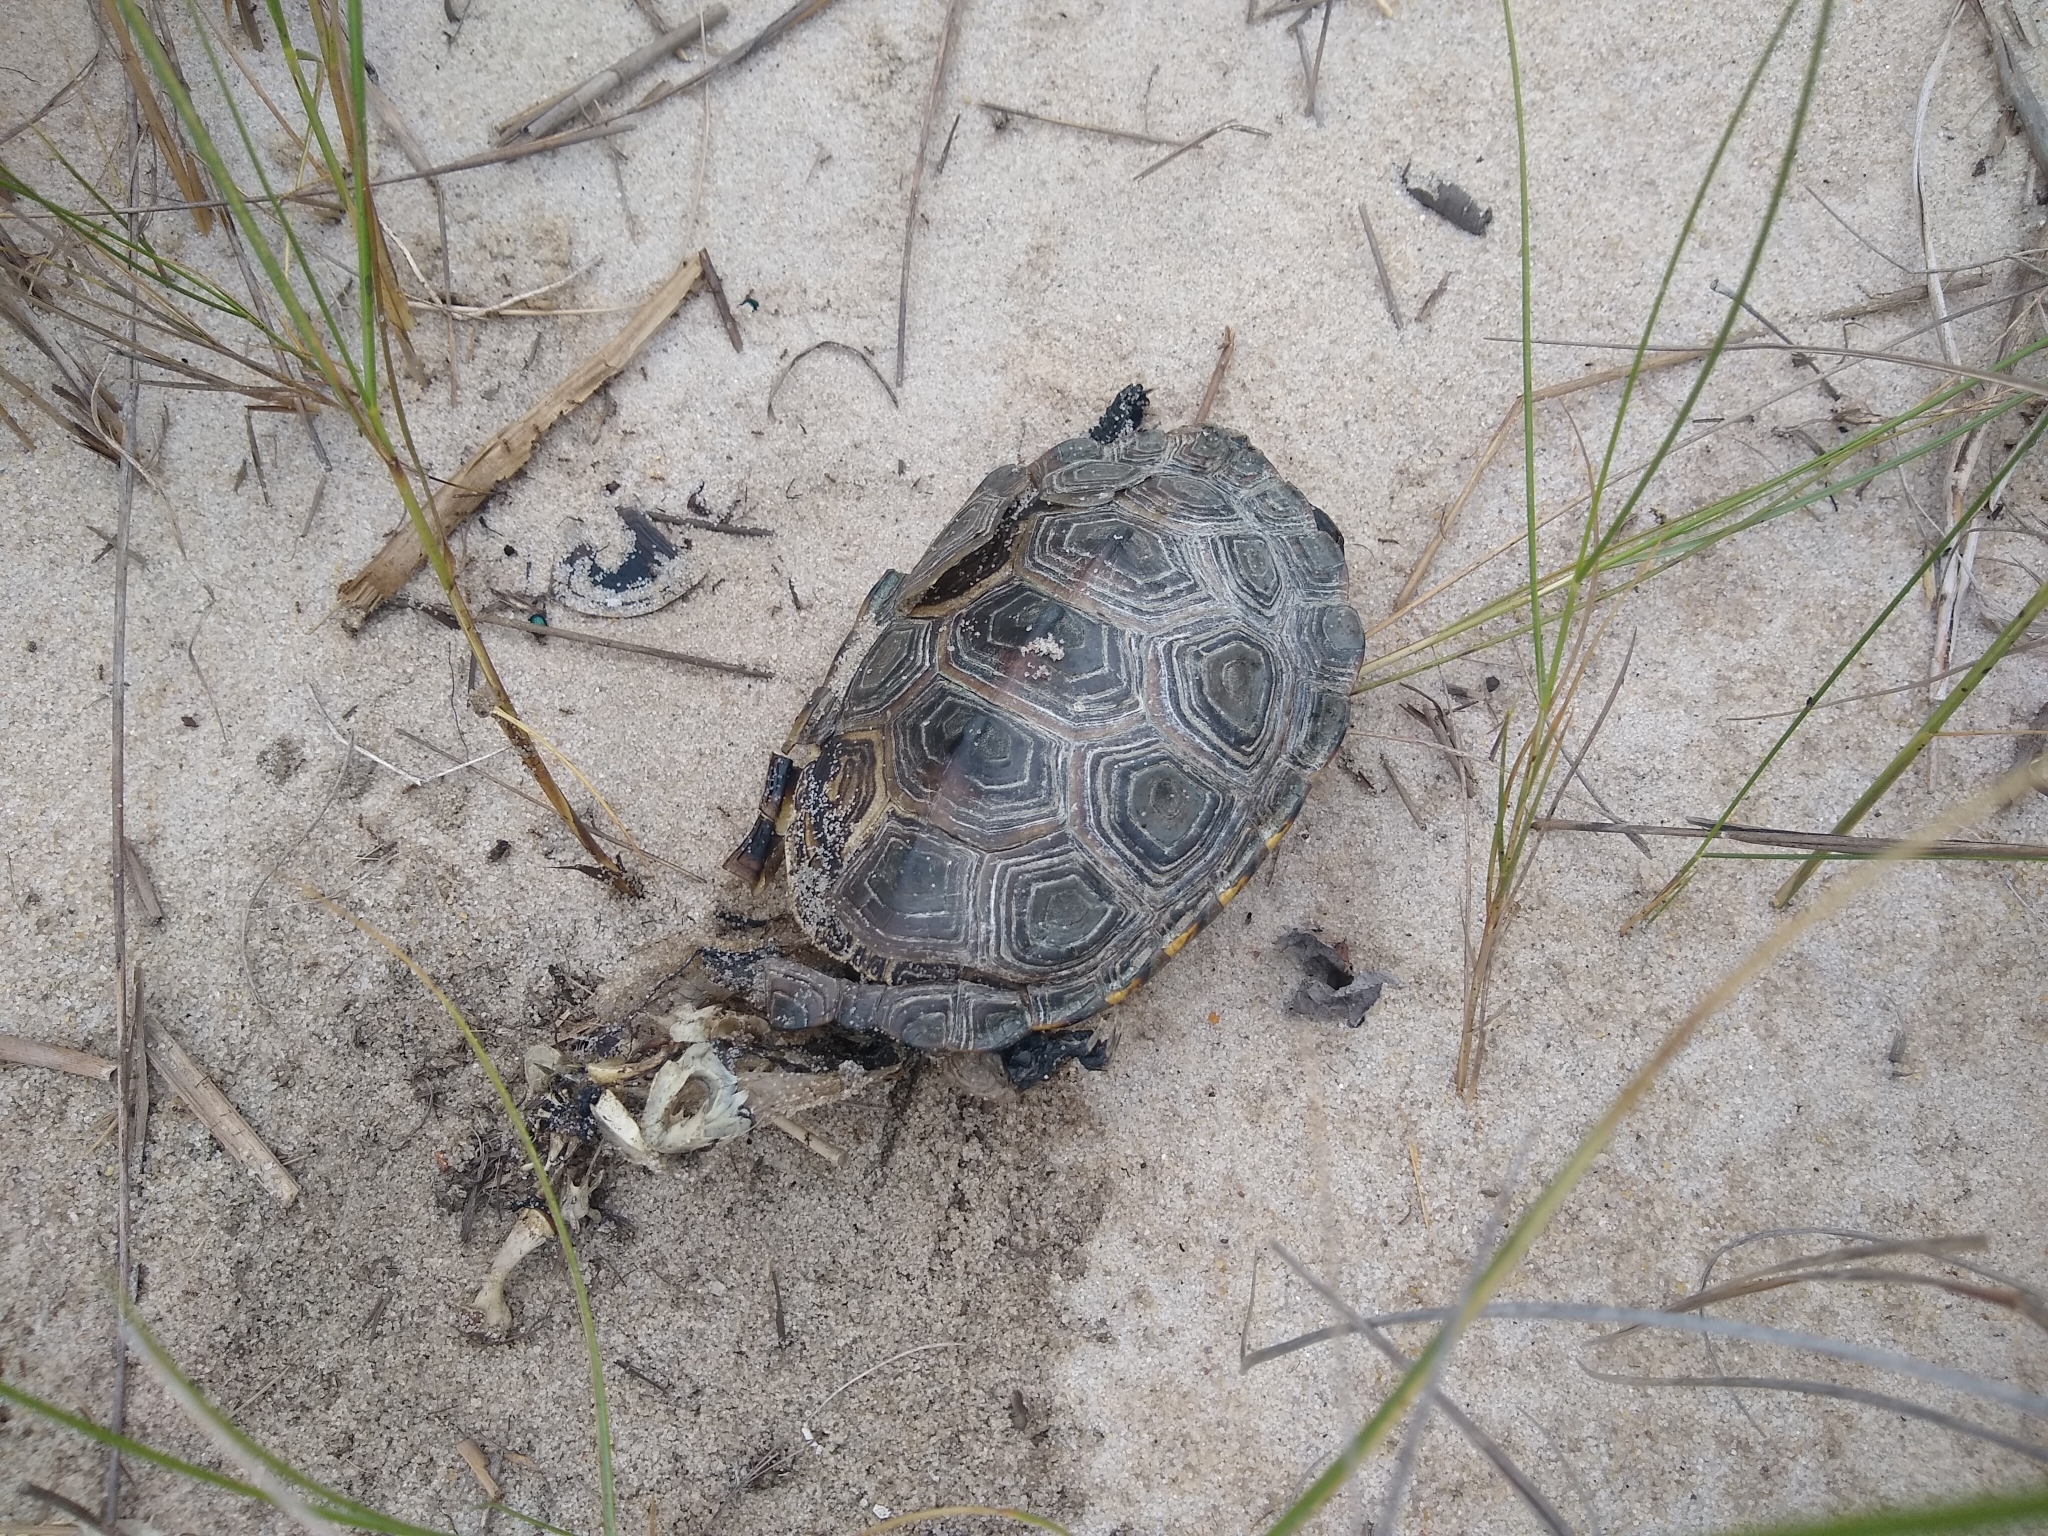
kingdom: Animalia
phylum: Chordata
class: Testudines
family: Emydidae
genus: Malaclemys
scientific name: Malaclemys terrapin
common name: Diamondback terrapin
